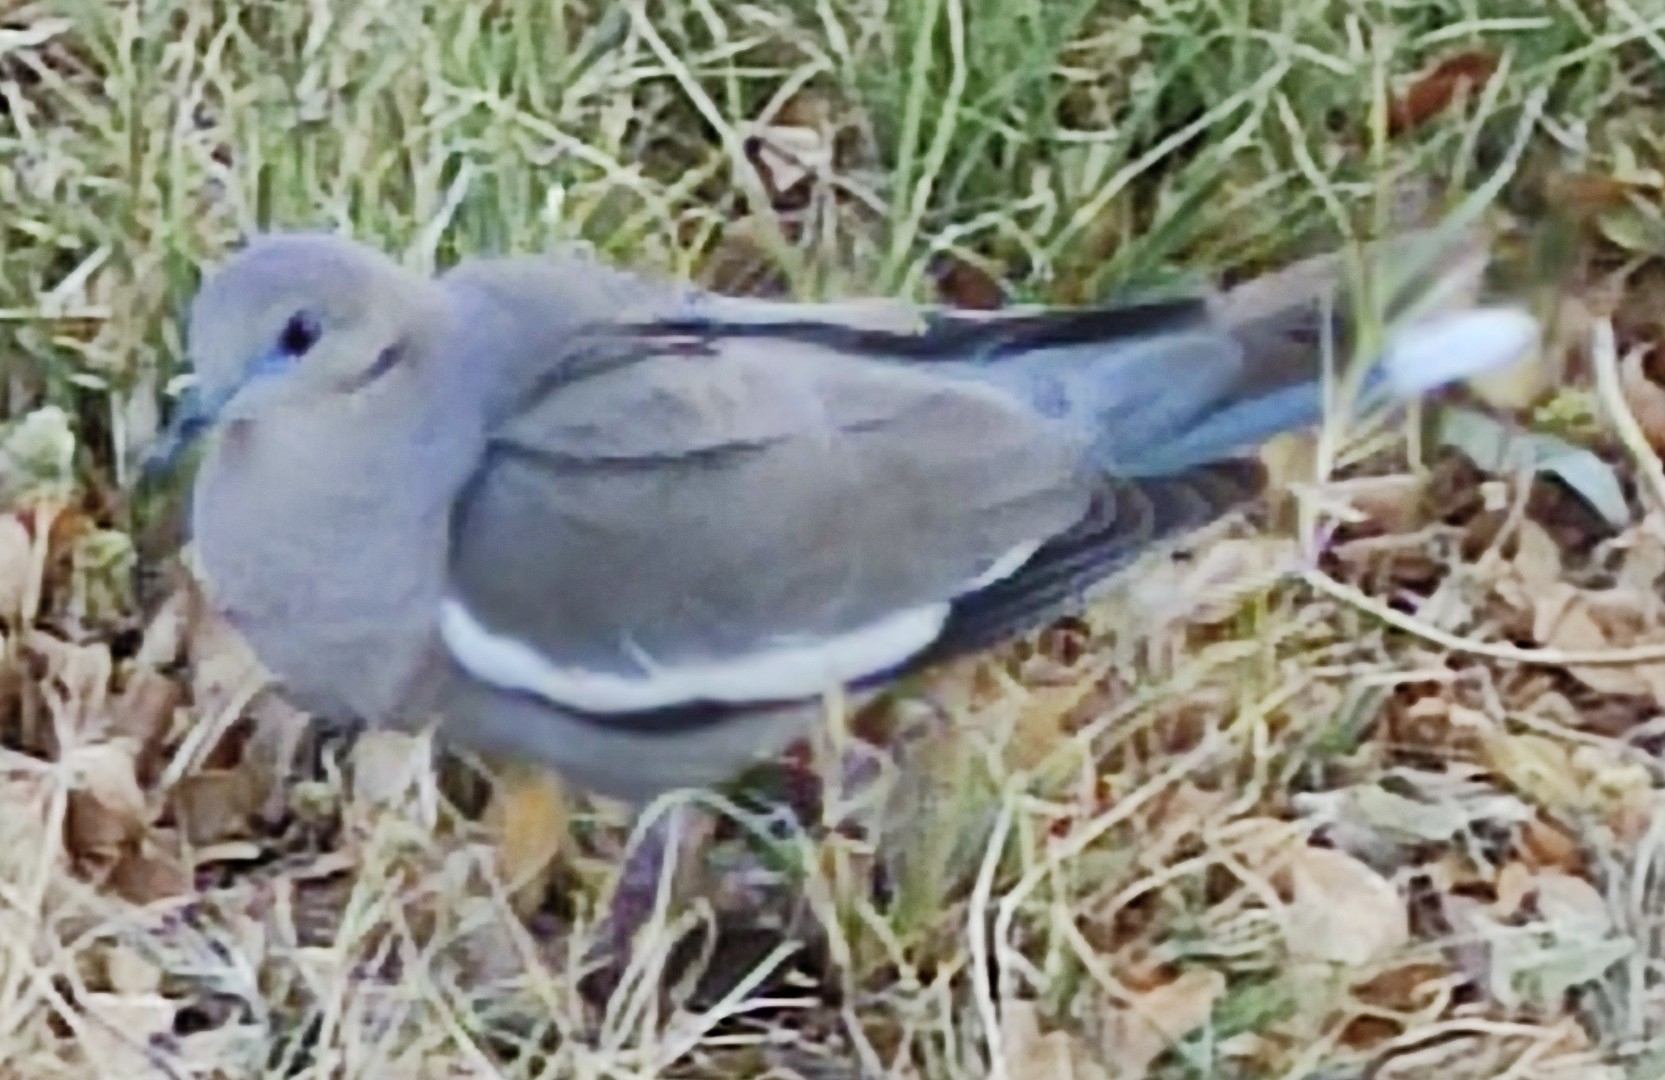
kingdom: Animalia
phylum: Chordata
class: Aves
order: Columbiformes
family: Columbidae
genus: Zenaida
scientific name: Zenaida asiatica
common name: White-winged dove
